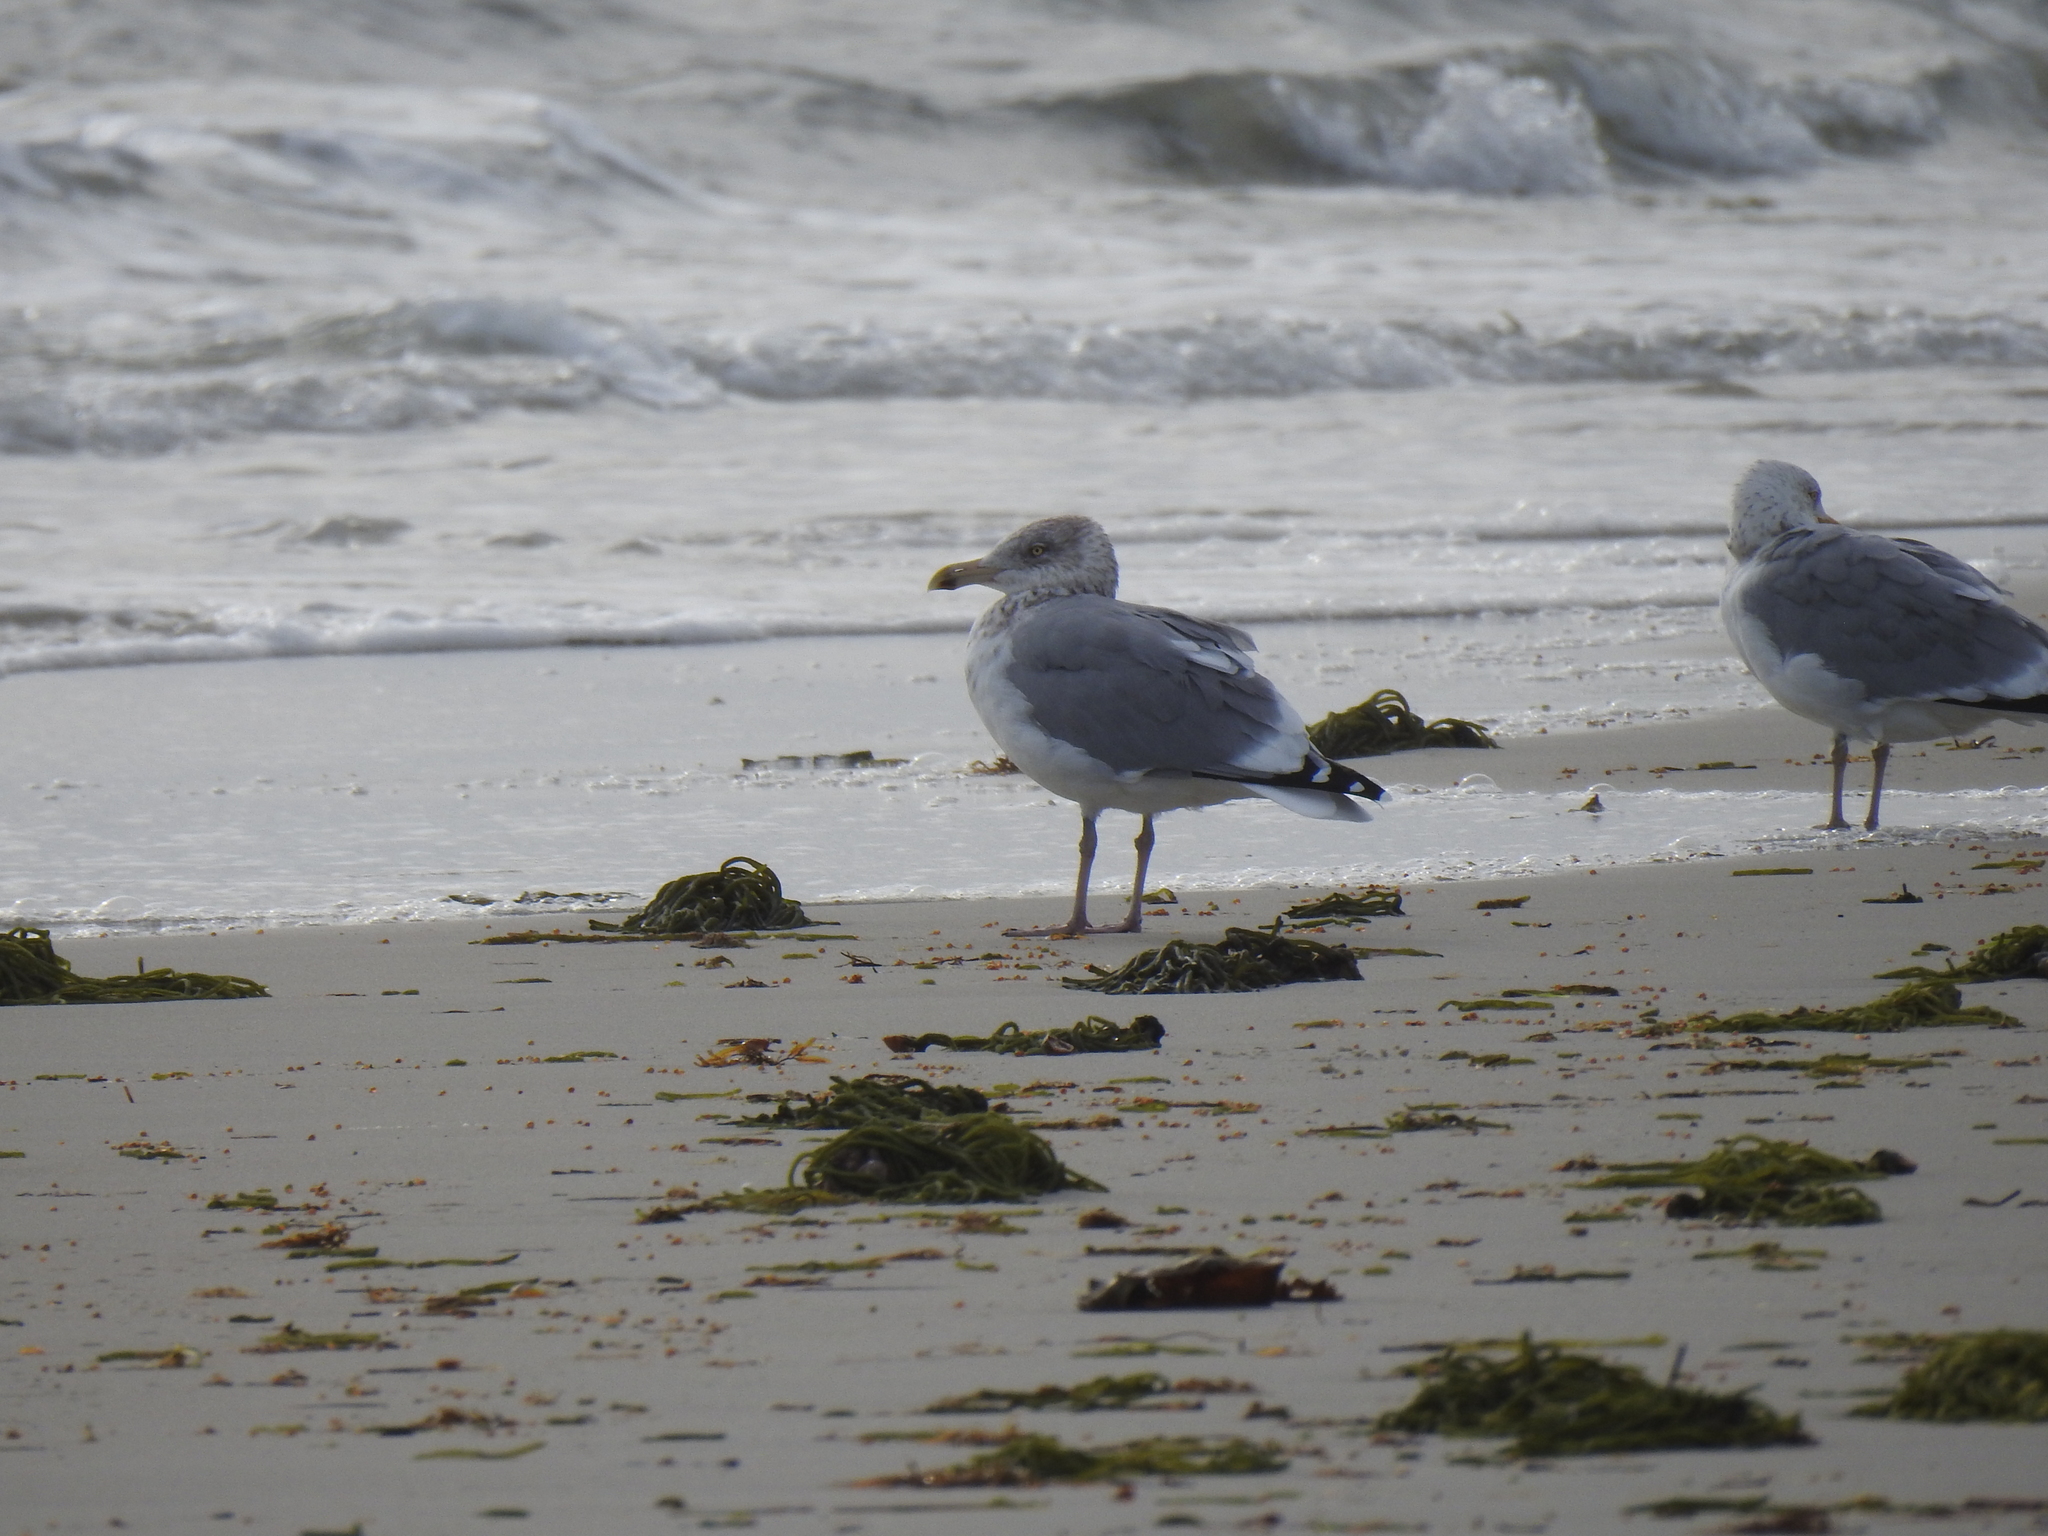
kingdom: Animalia
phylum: Chordata
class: Aves
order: Charadriiformes
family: Laridae
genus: Larus
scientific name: Larus argentatus
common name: Herring gull
